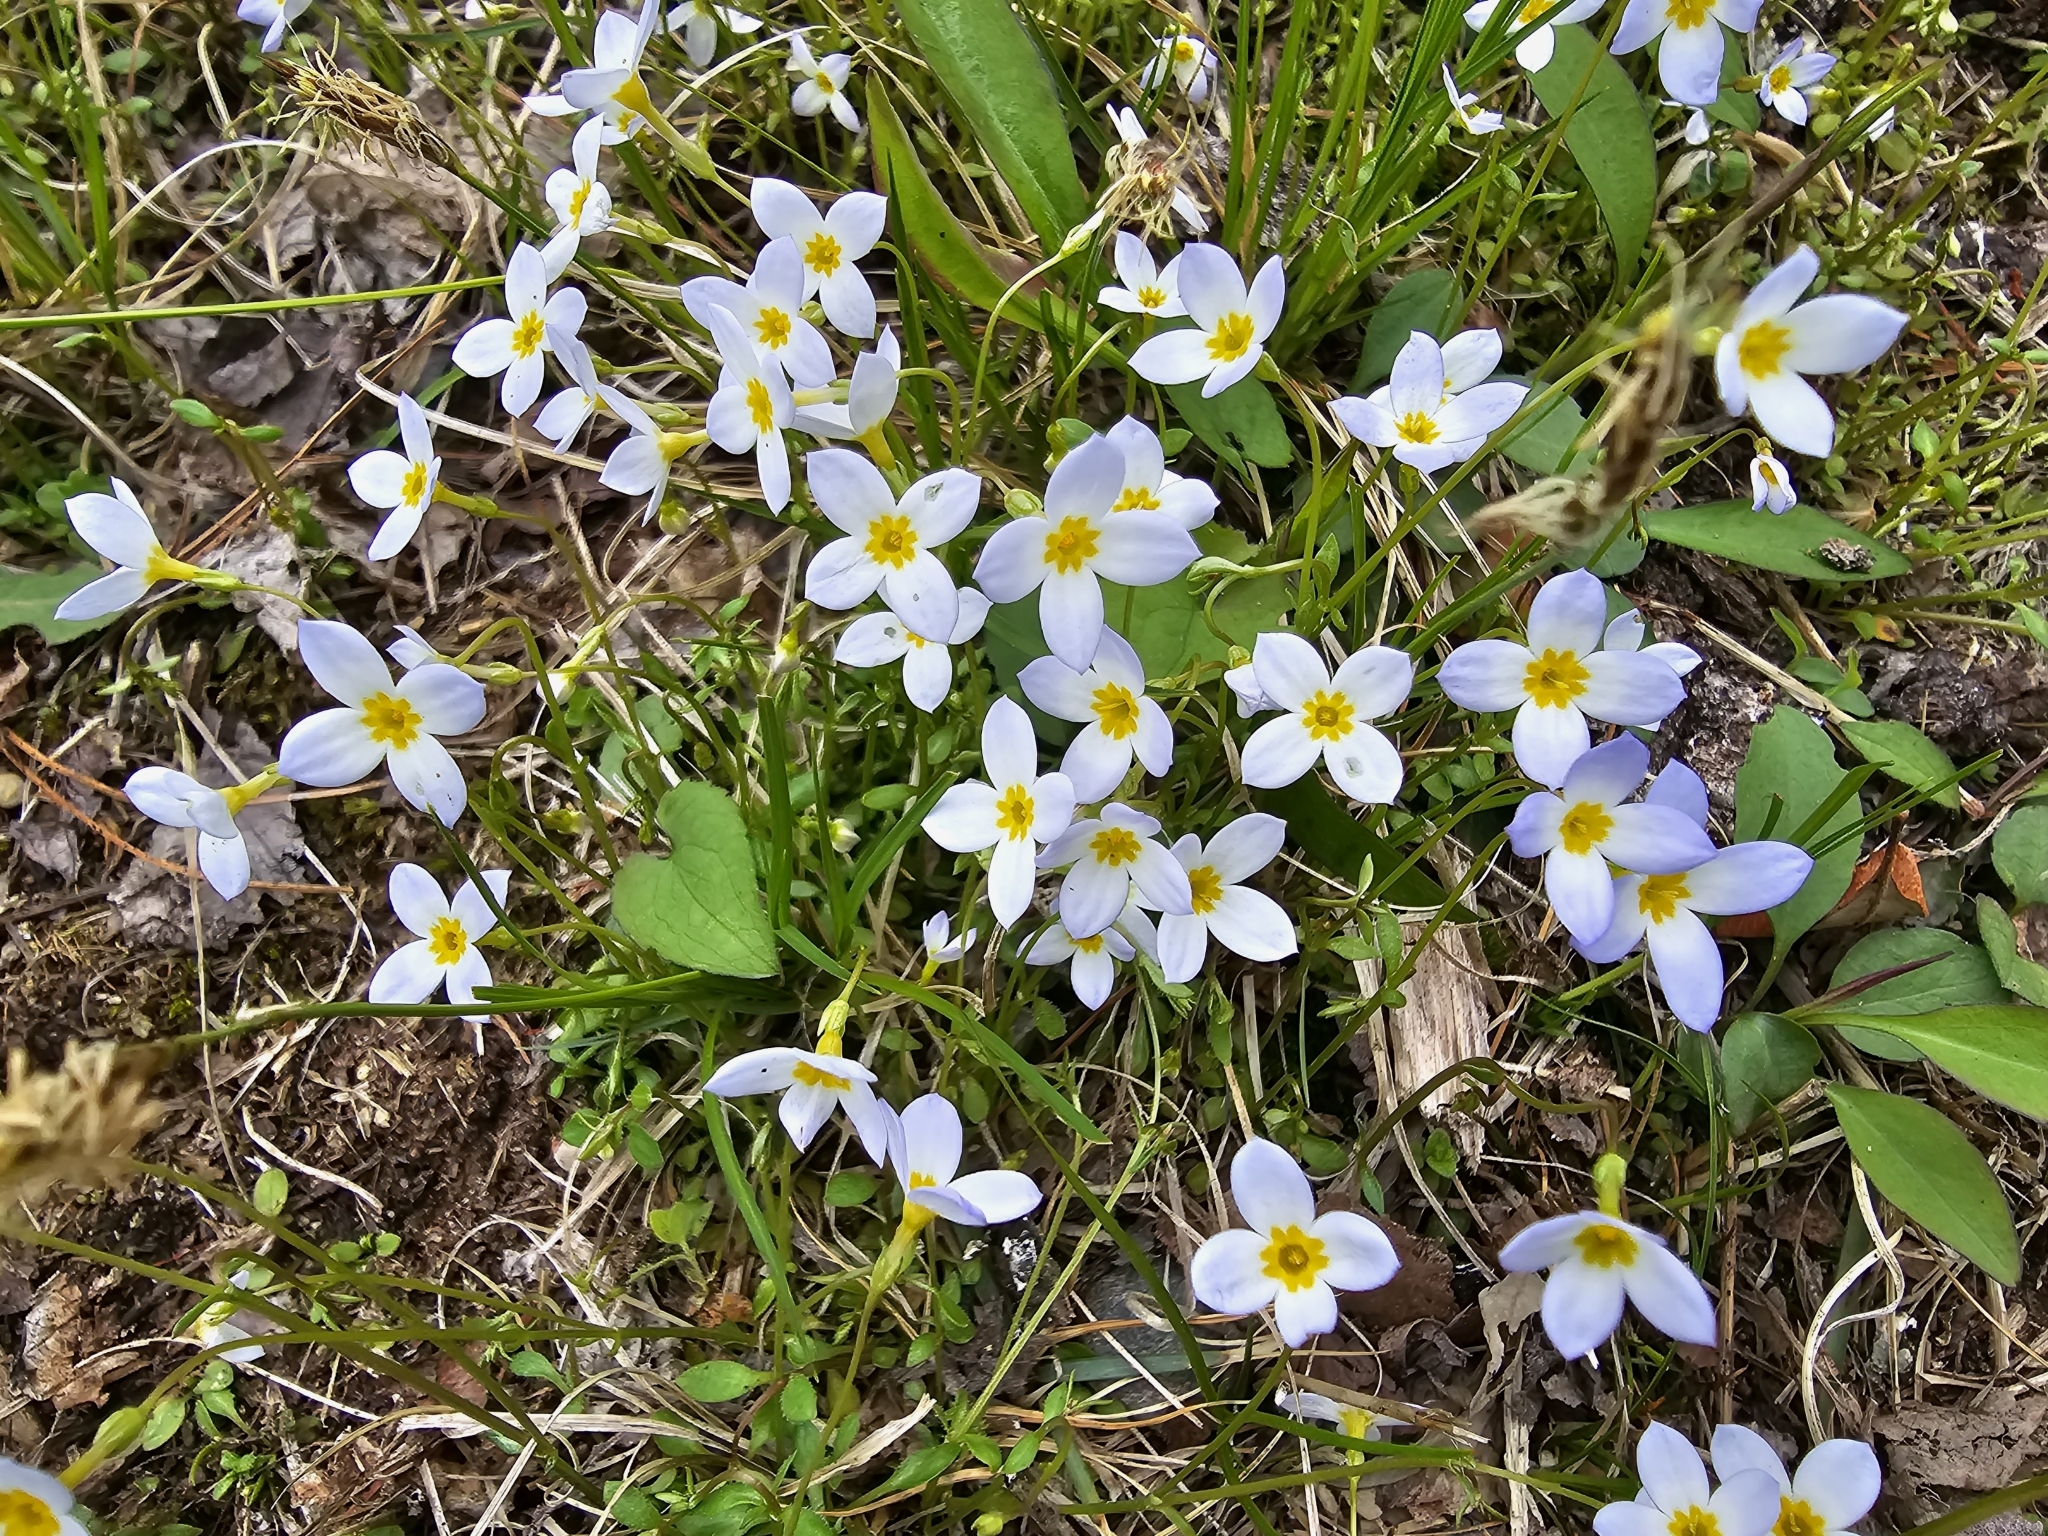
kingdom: Plantae
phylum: Tracheophyta
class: Magnoliopsida
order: Gentianales
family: Rubiaceae
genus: Houstonia
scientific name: Houstonia caerulea
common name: Bluets
